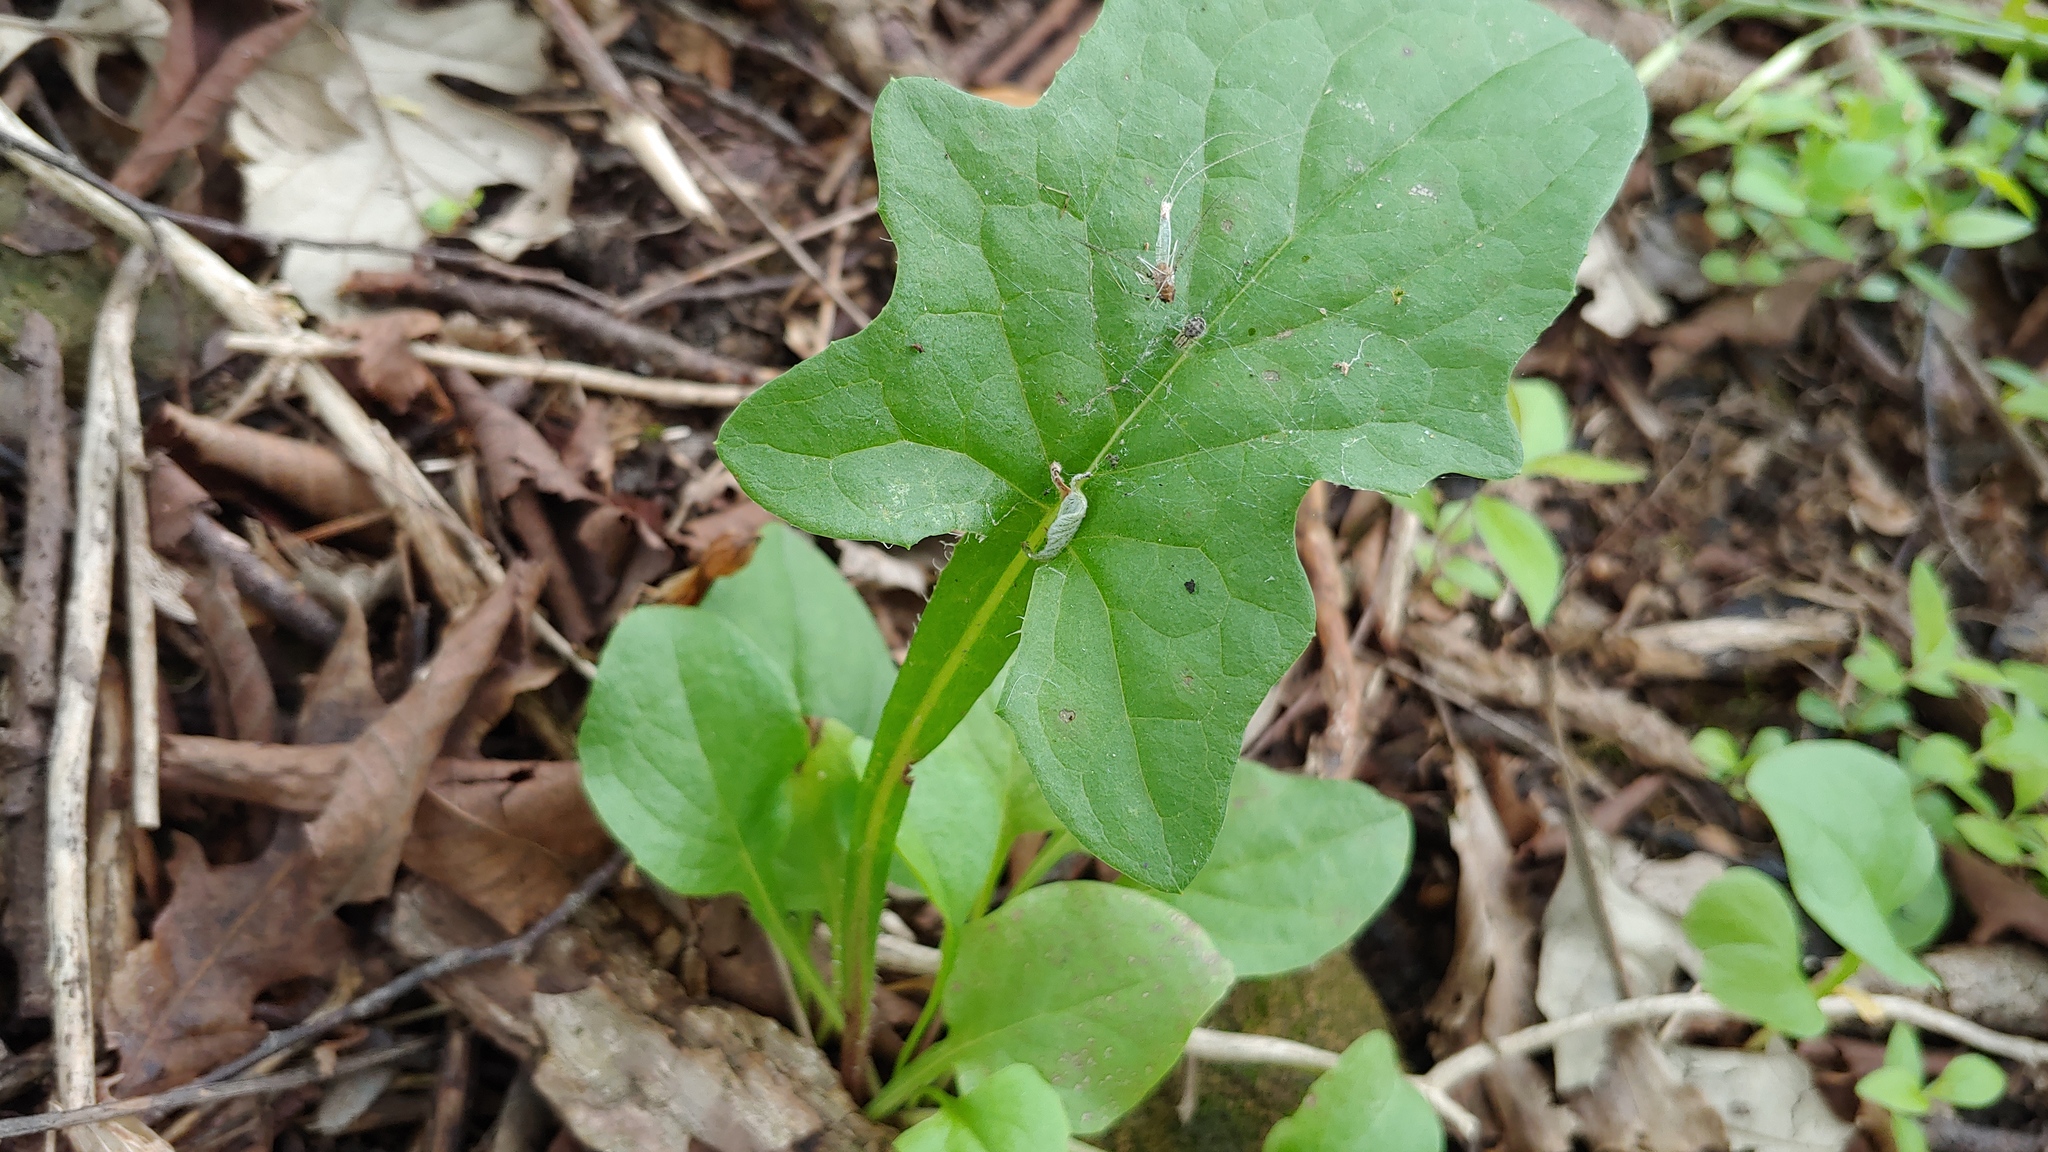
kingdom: Plantae
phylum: Tracheophyta
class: Magnoliopsida
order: Asterales
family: Asteraceae
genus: Nabalus
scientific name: Nabalus crepidineus
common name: Nodding rattlesnakeroot
